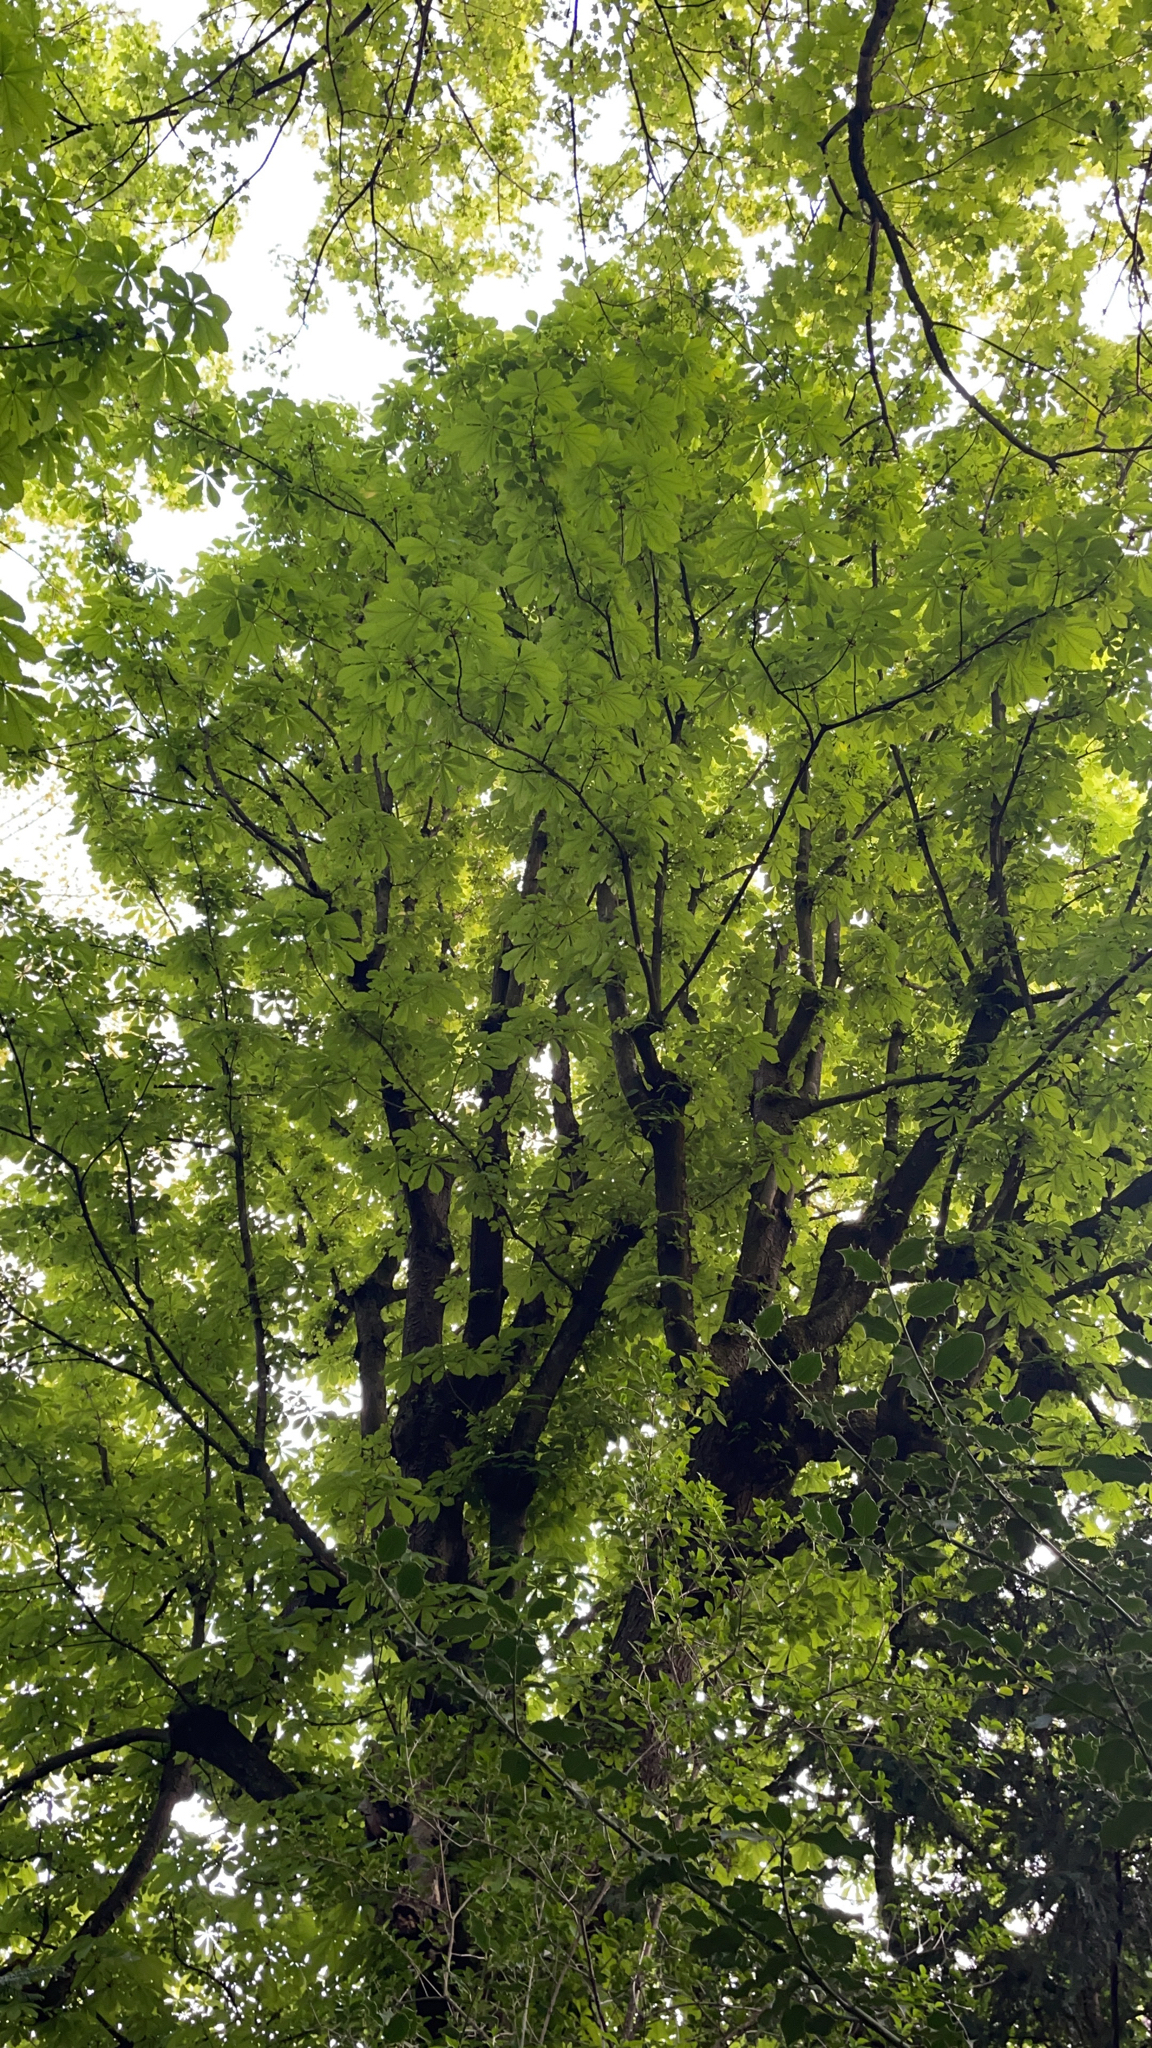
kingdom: Plantae
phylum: Tracheophyta
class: Magnoliopsida
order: Sapindales
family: Sapindaceae
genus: Aesculus
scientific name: Aesculus hippocastanum
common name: Horse-chestnut
